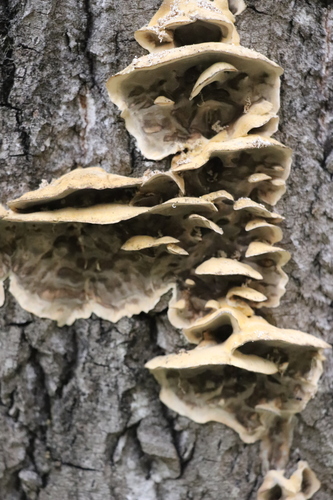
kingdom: Fungi
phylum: Basidiomycota
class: Agaricomycetes
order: Polyporales
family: Phanerochaetaceae
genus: Bjerkandera
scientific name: Bjerkandera adusta
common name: Smoky bracket
